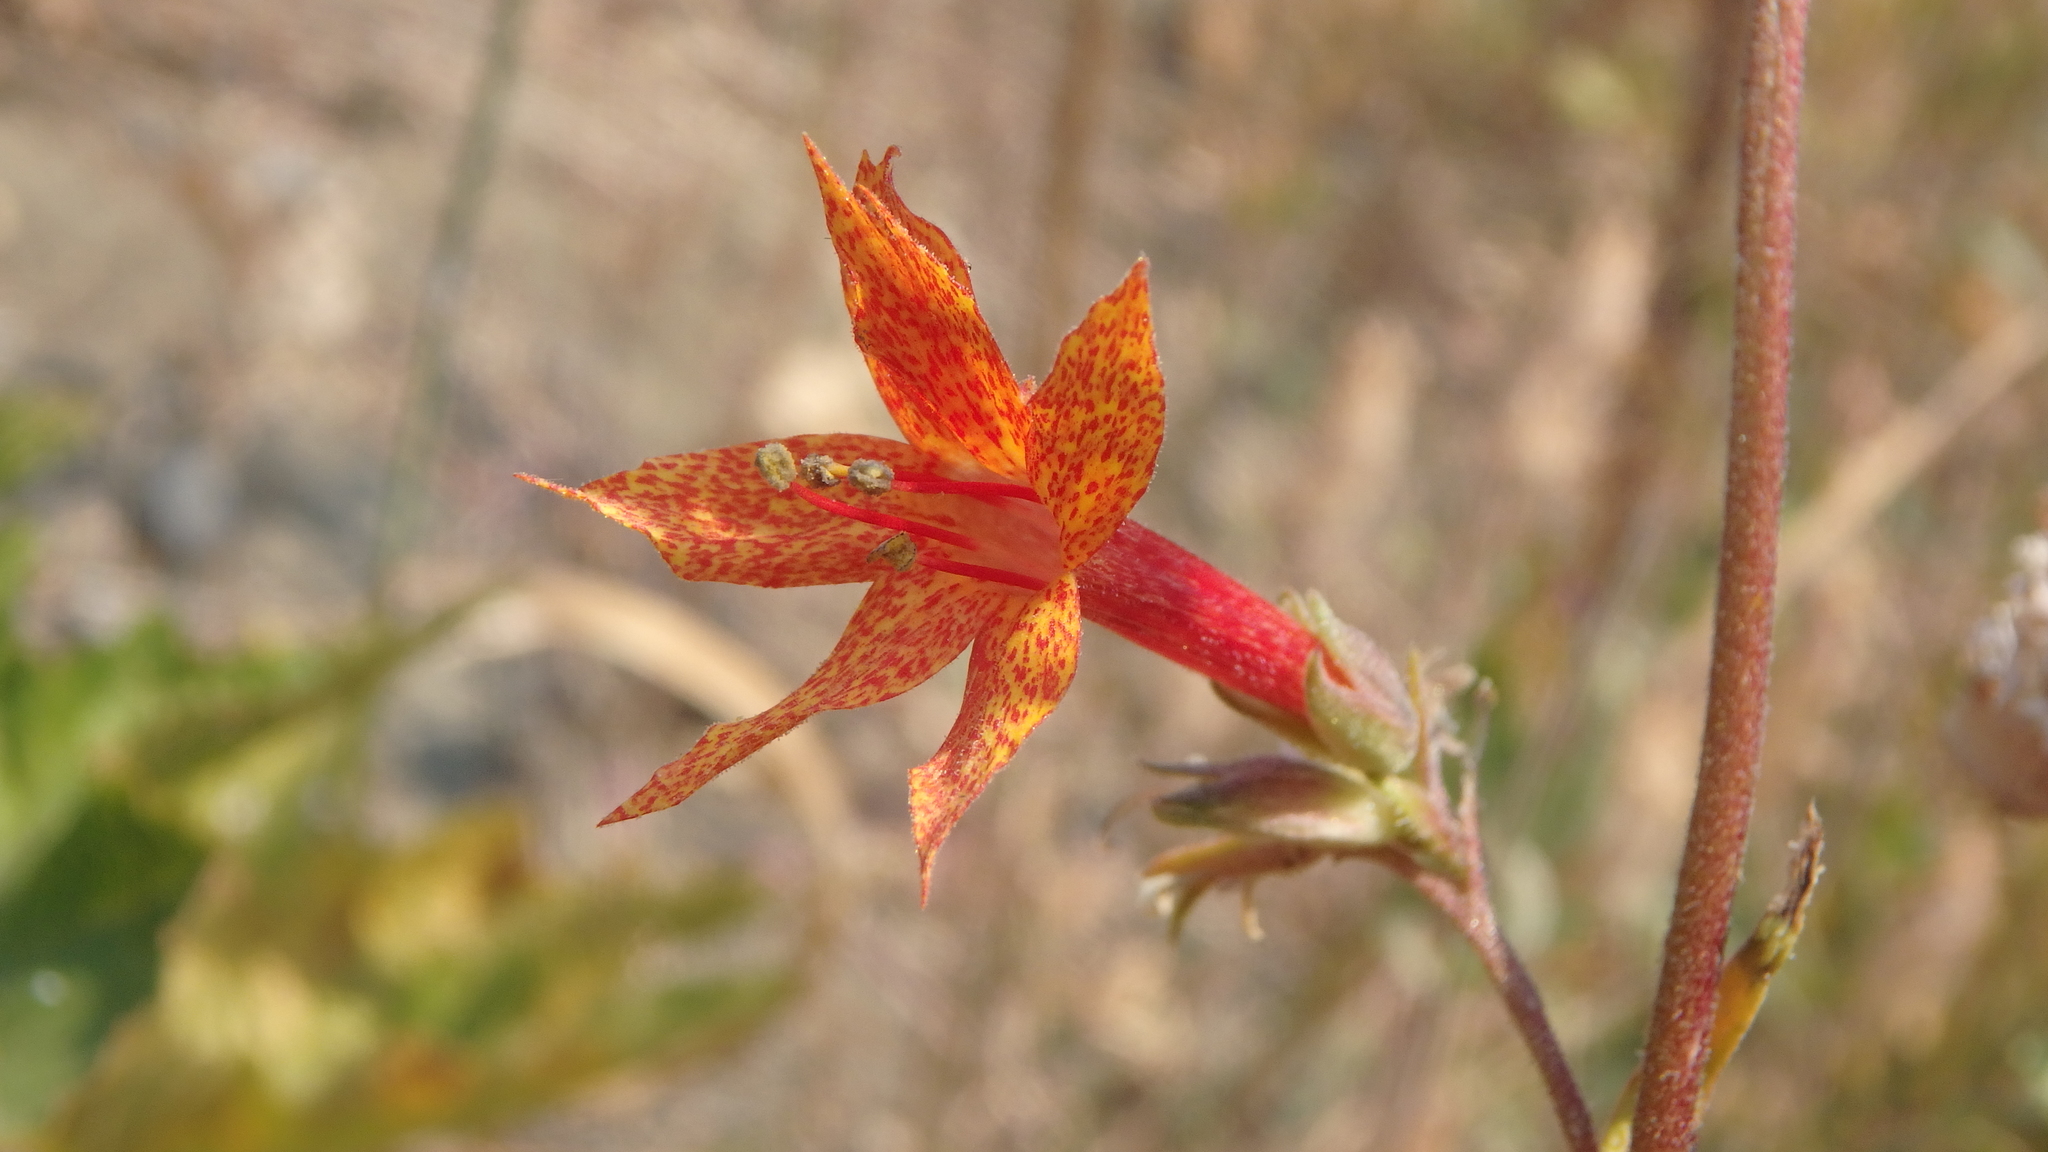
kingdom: Plantae
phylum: Tracheophyta
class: Magnoliopsida
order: Ericales
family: Polemoniaceae
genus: Ipomopsis
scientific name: Ipomopsis aggregata
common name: Scarlet gilia
